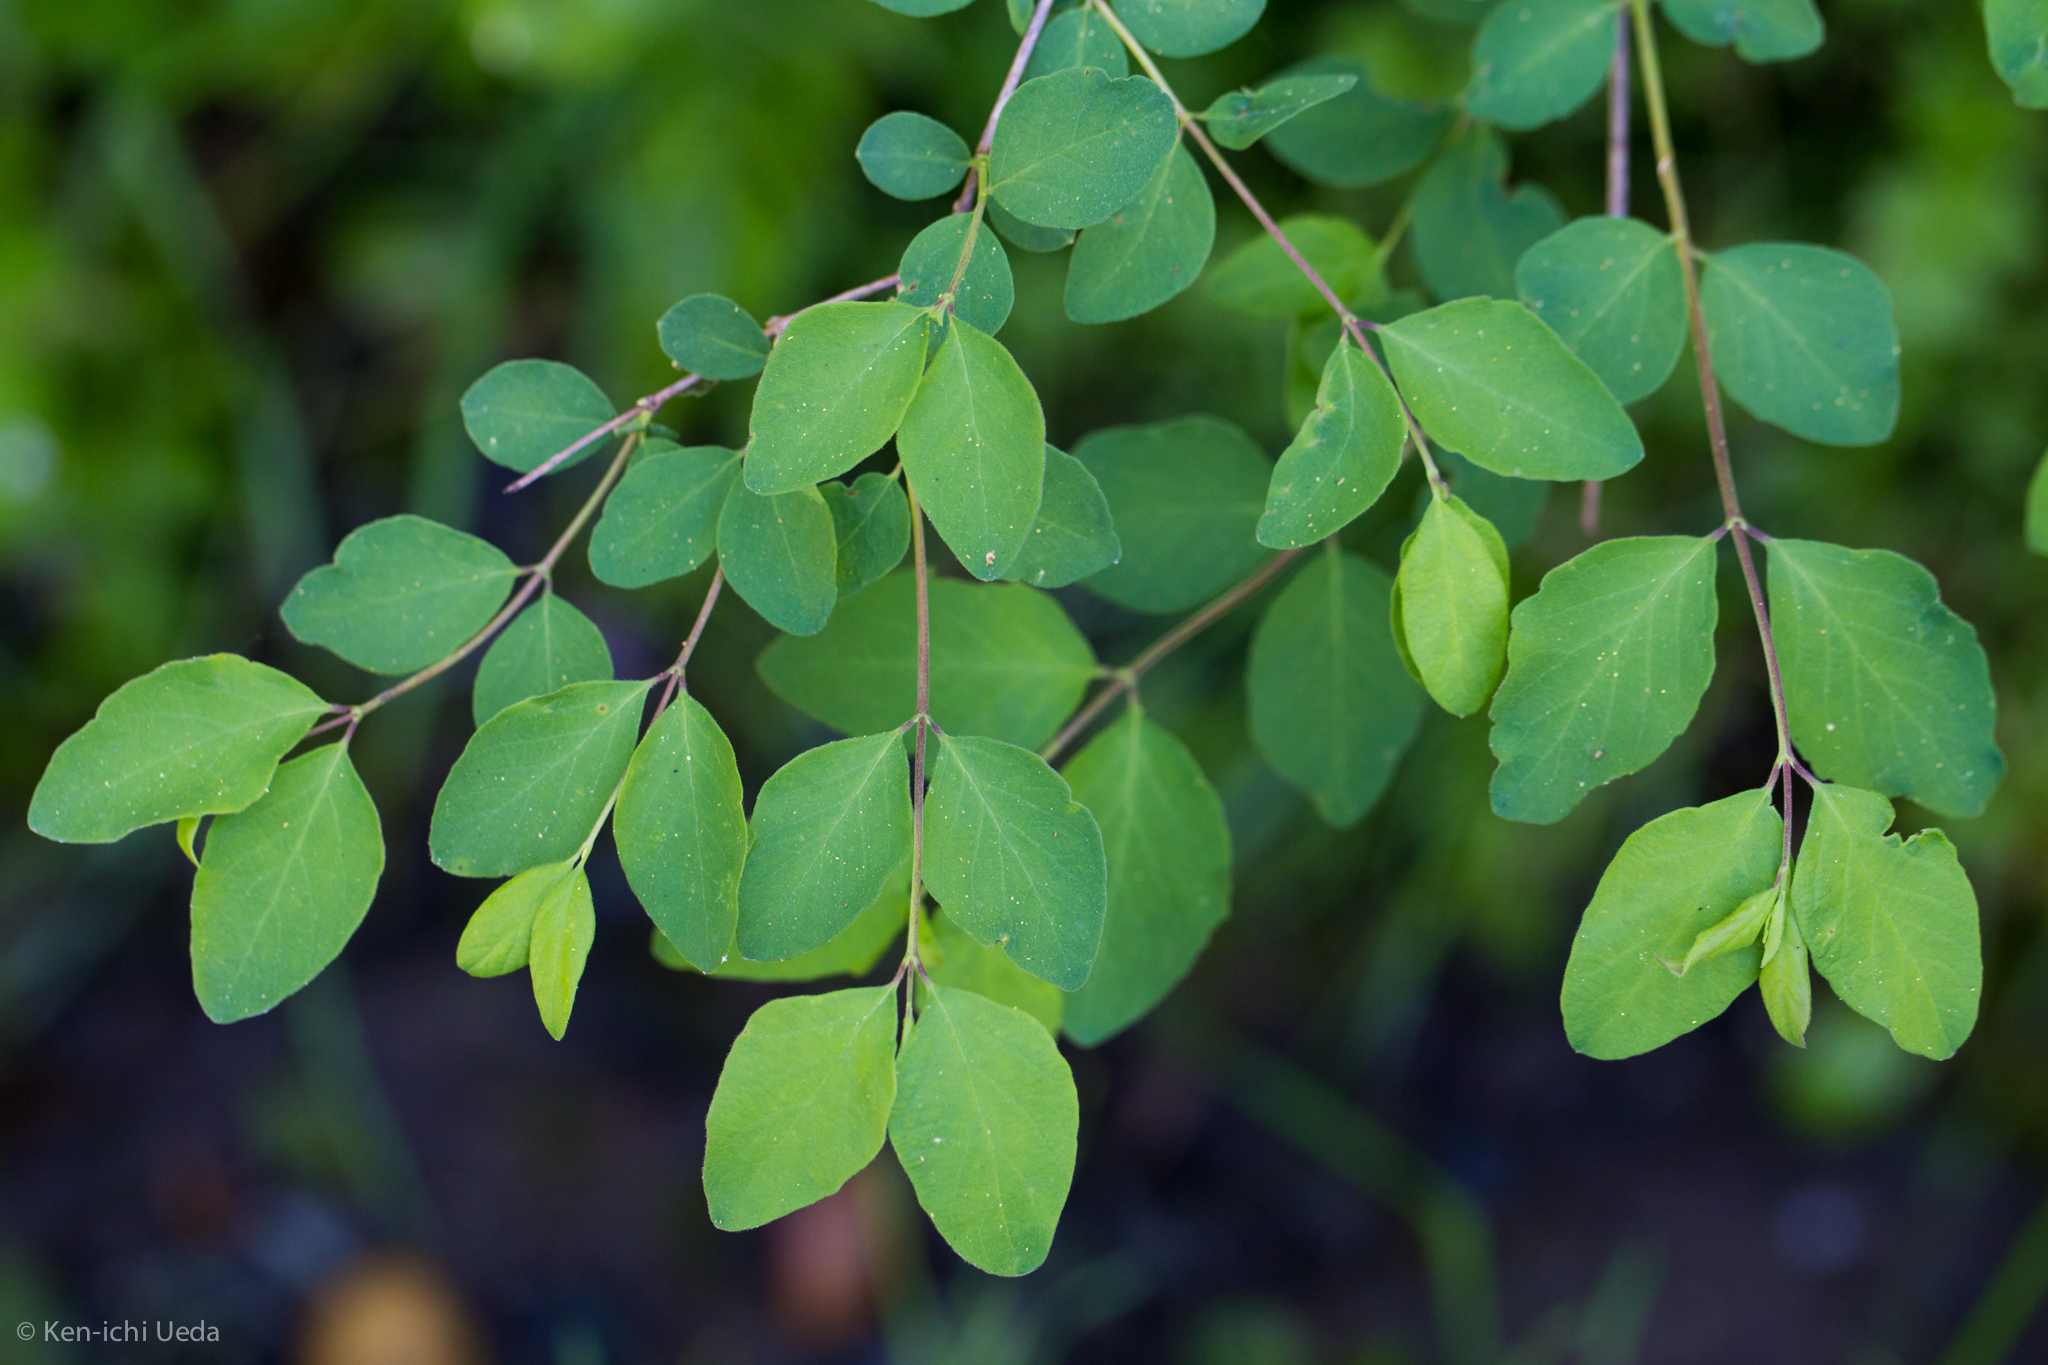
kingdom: Plantae
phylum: Tracheophyta
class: Magnoliopsida
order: Dipsacales
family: Caprifoliaceae
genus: Symphoricarpos
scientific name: Symphoricarpos albus
